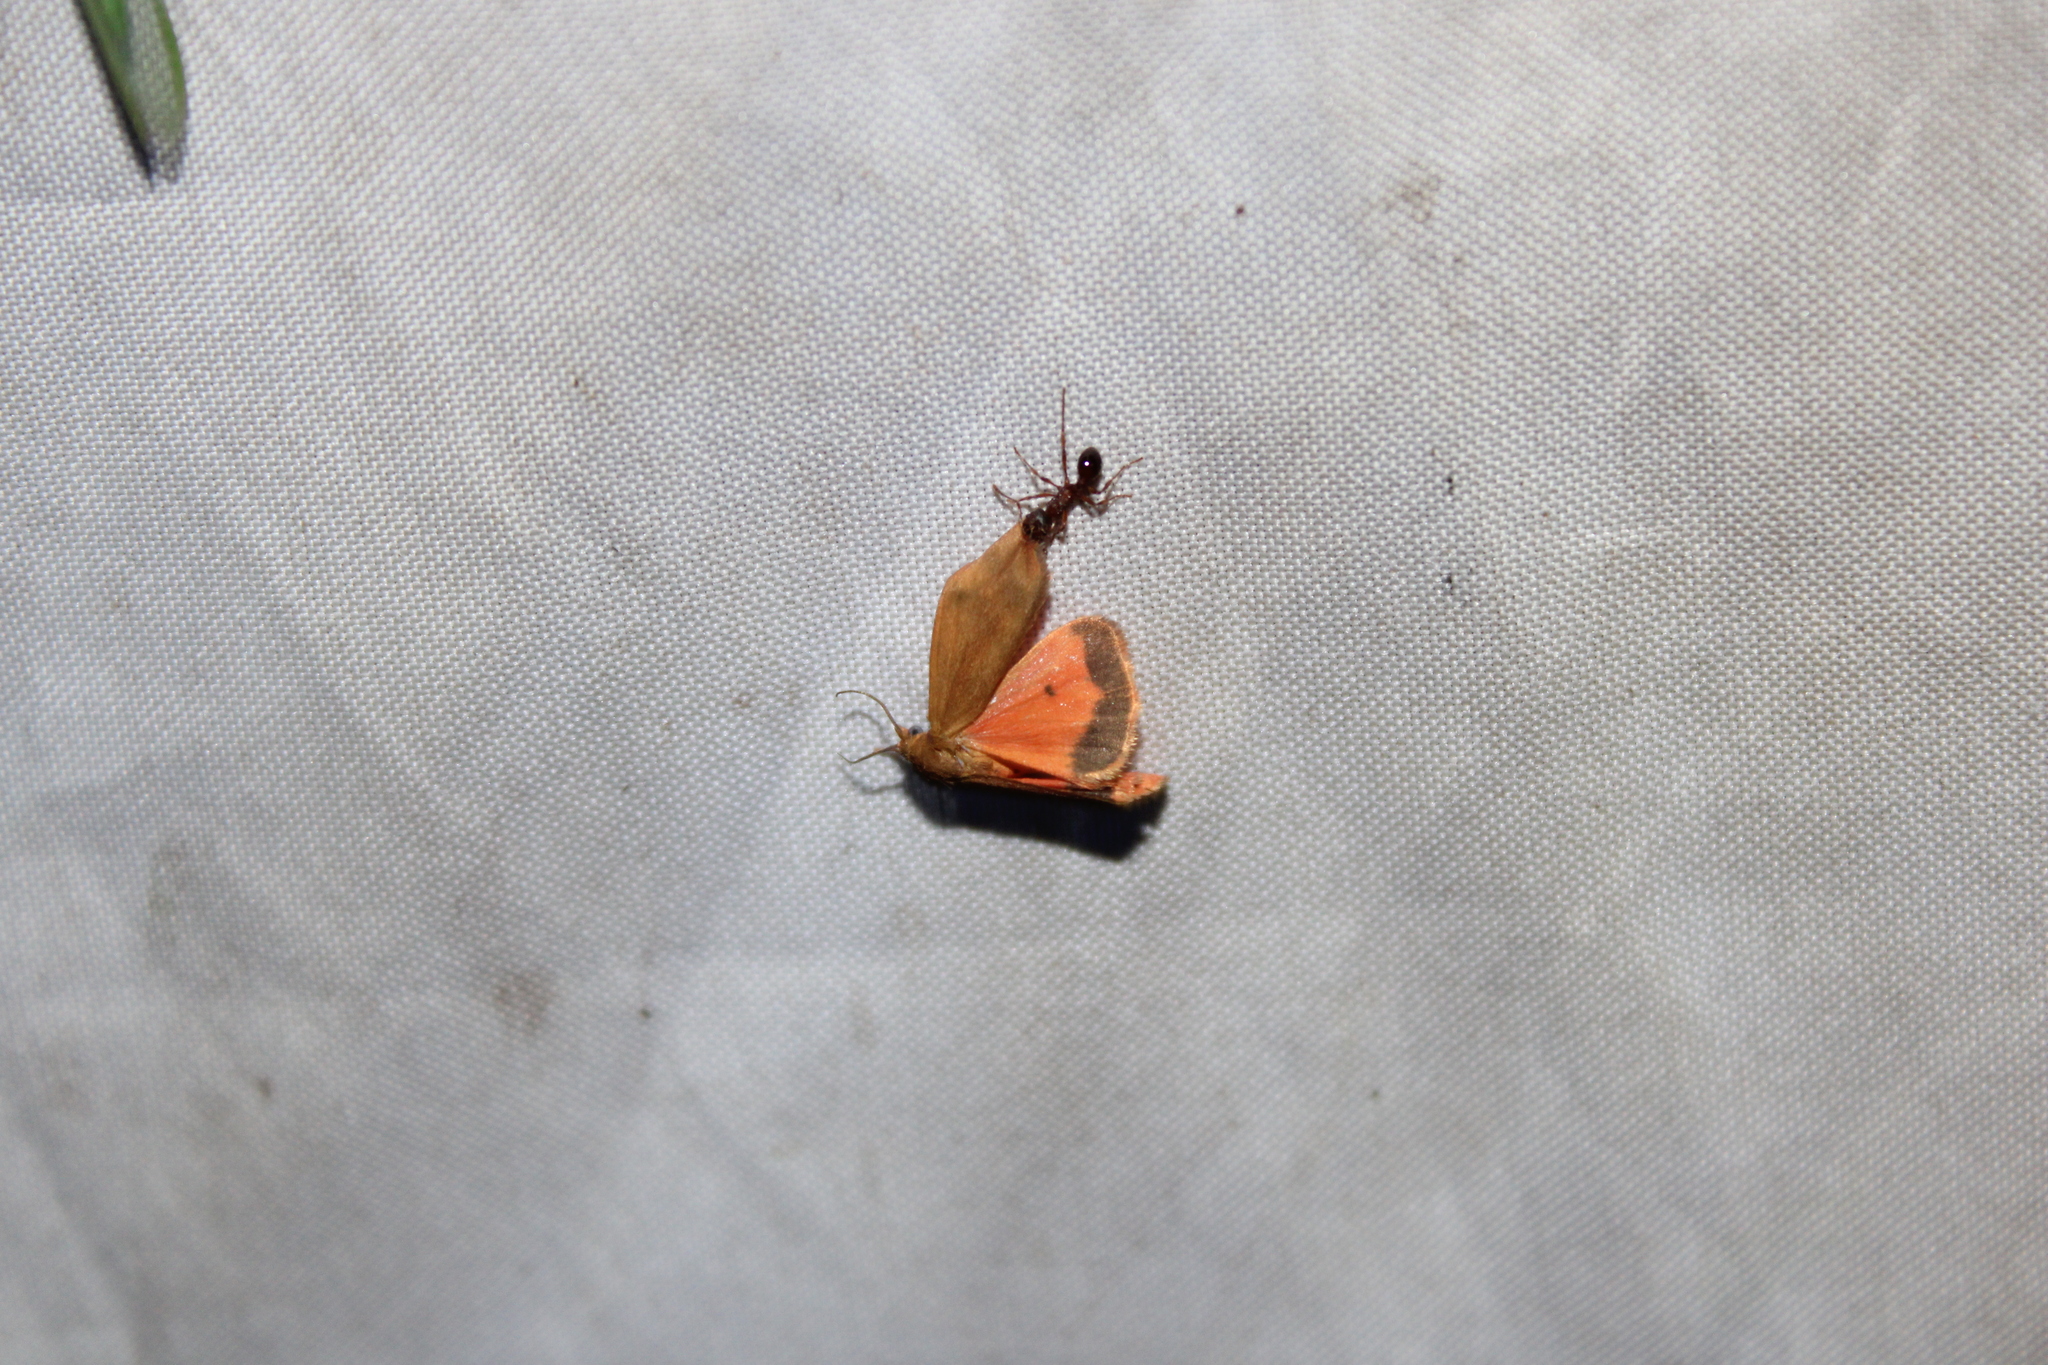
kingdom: Animalia
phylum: Arthropoda
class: Insecta
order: Lepidoptera
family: Erebidae
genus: Virbia
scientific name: Virbia aurantiaca
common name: Orange virbia moth
